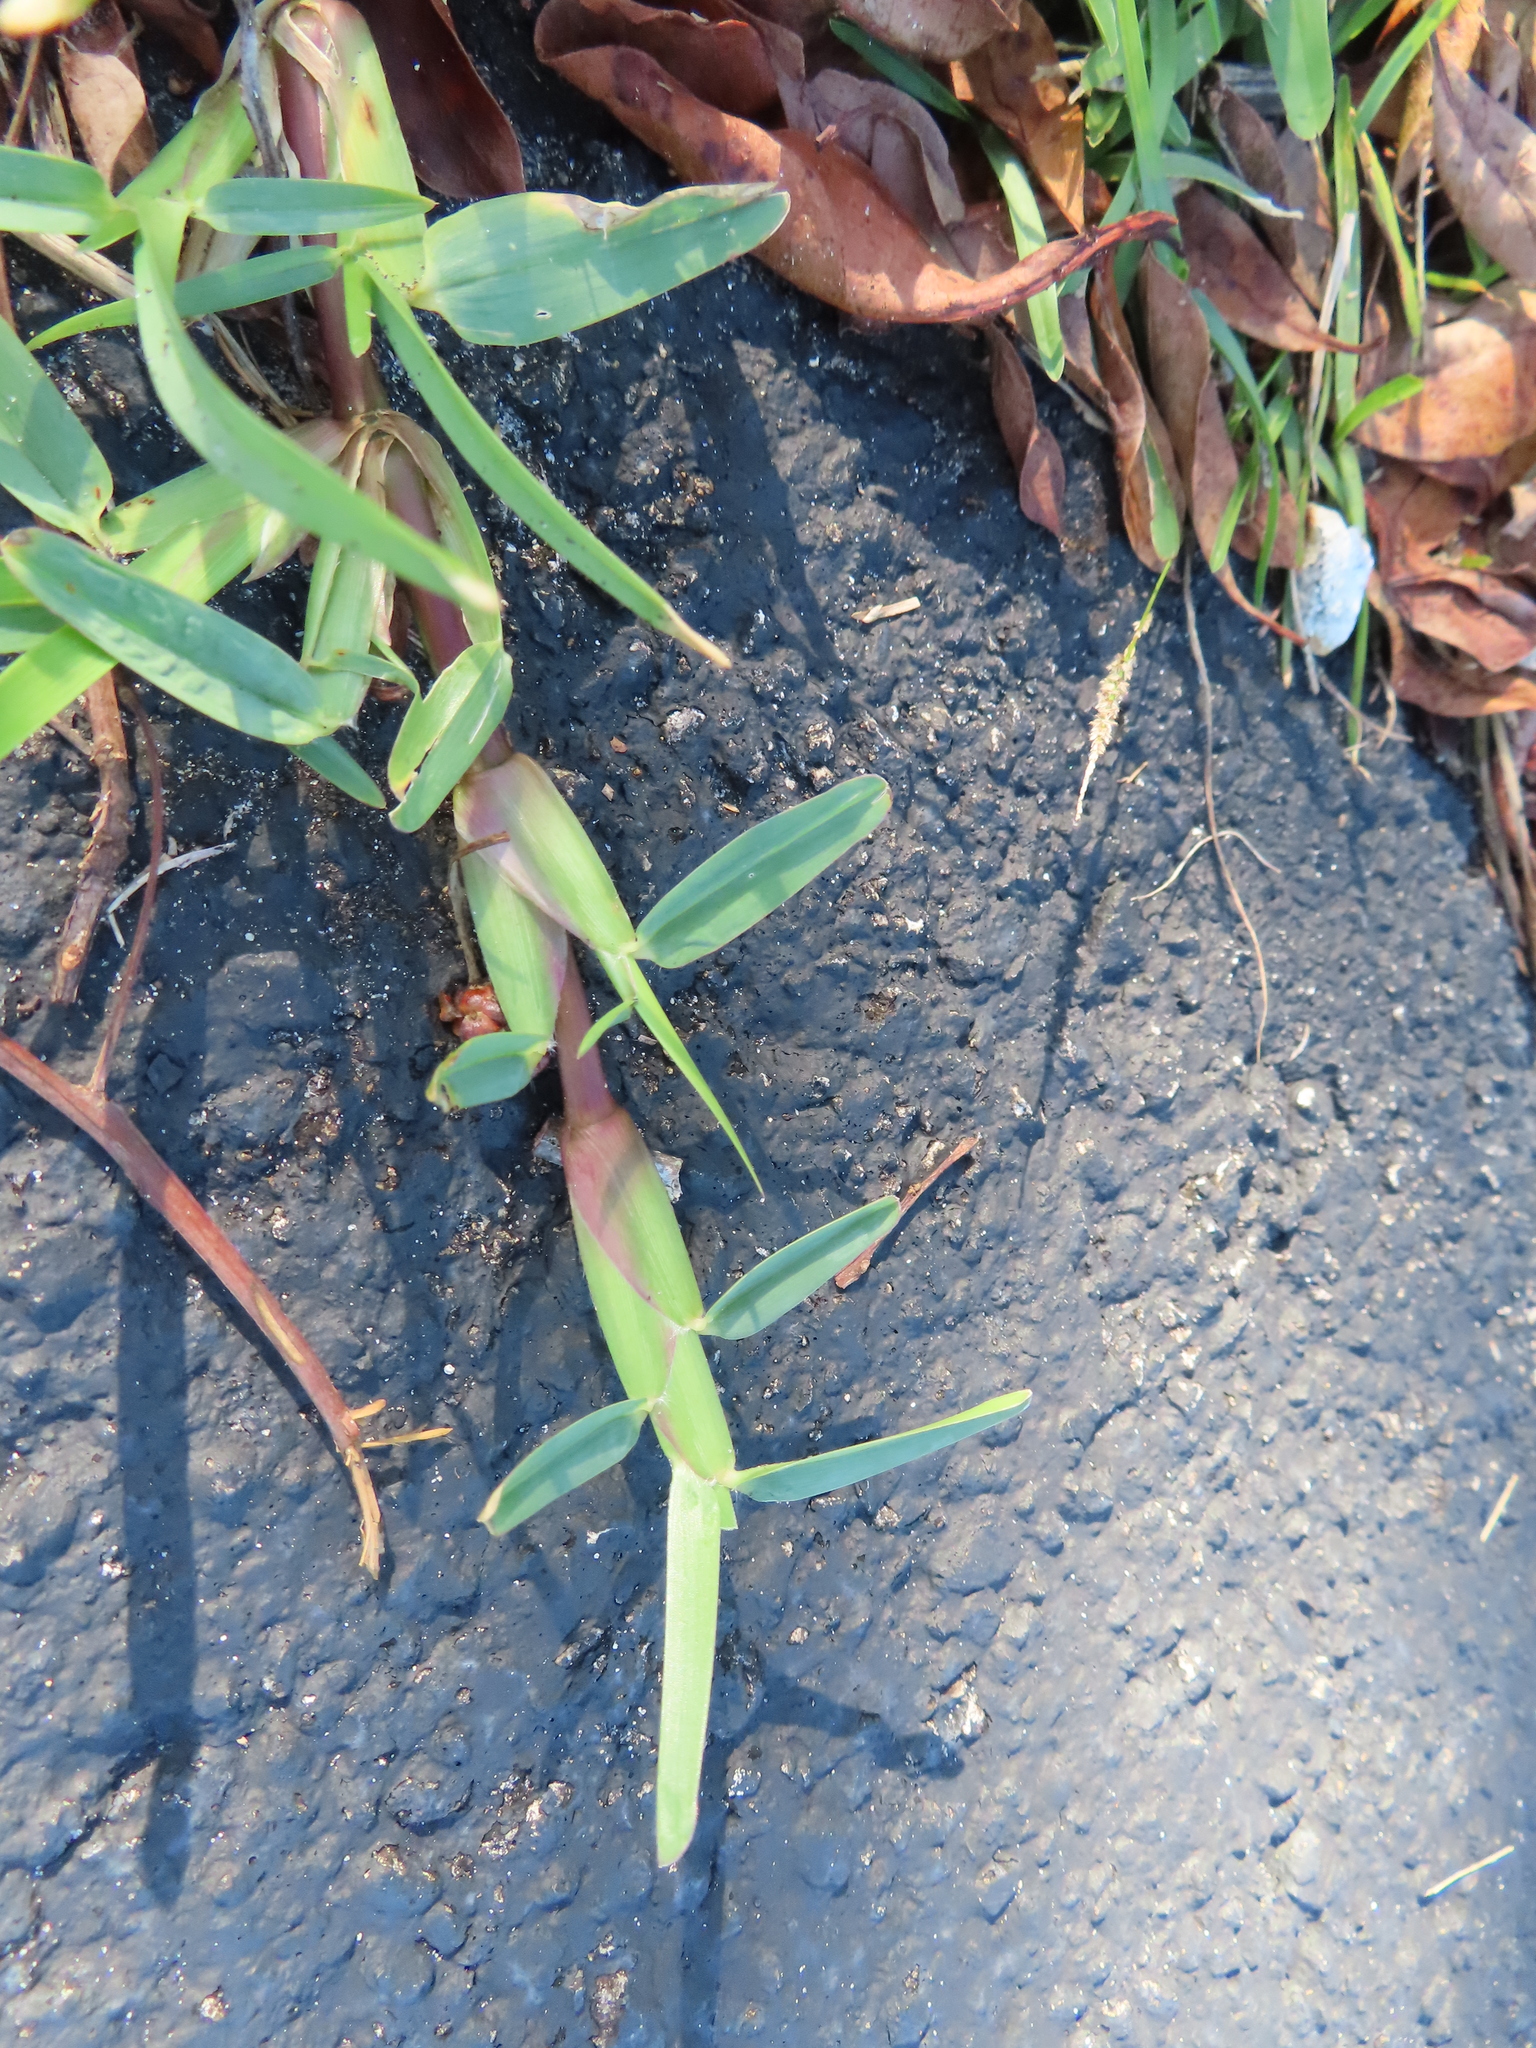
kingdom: Plantae
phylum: Tracheophyta
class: Liliopsida
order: Poales
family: Poaceae
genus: Stenotaphrum
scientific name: Stenotaphrum secundatum
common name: St. augustine grass
